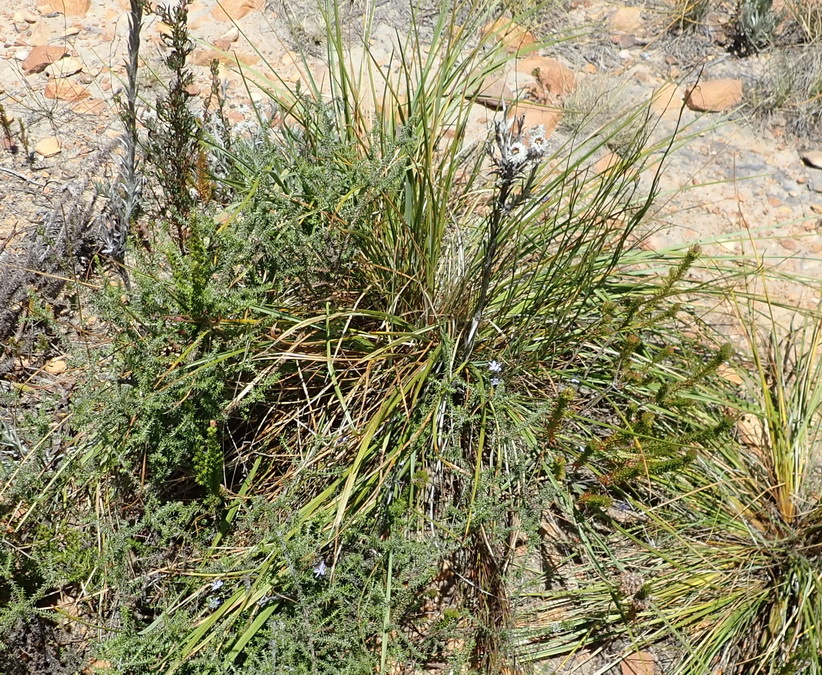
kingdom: Plantae
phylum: Tracheophyta
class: Liliopsida
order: Asparagales
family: Asphodelaceae
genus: Caesia
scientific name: Caesia contorta
